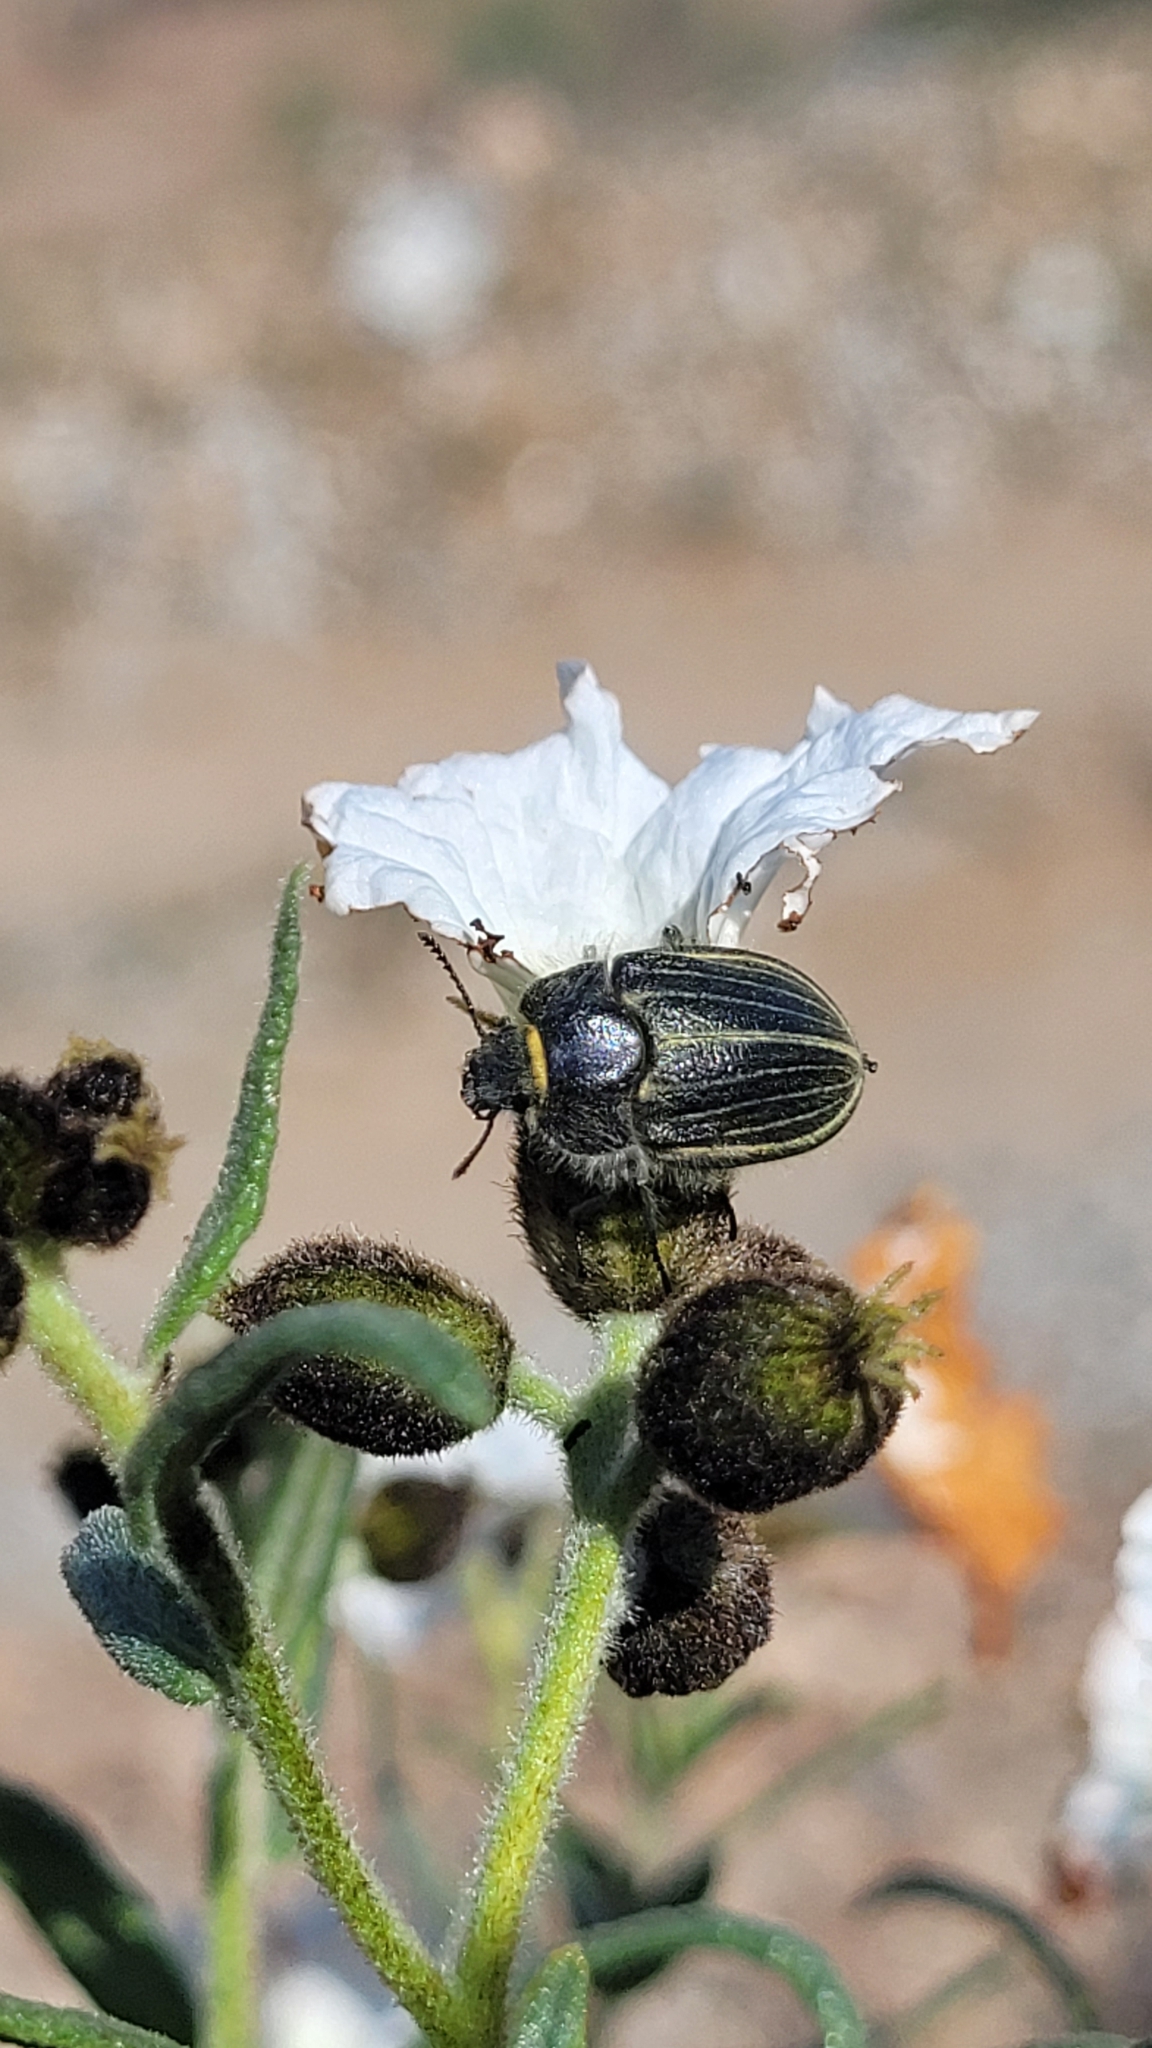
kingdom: Animalia
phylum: Arthropoda
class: Insecta
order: Coleoptera
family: Tenebrionidae
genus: Geoborus
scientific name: Geoborus
